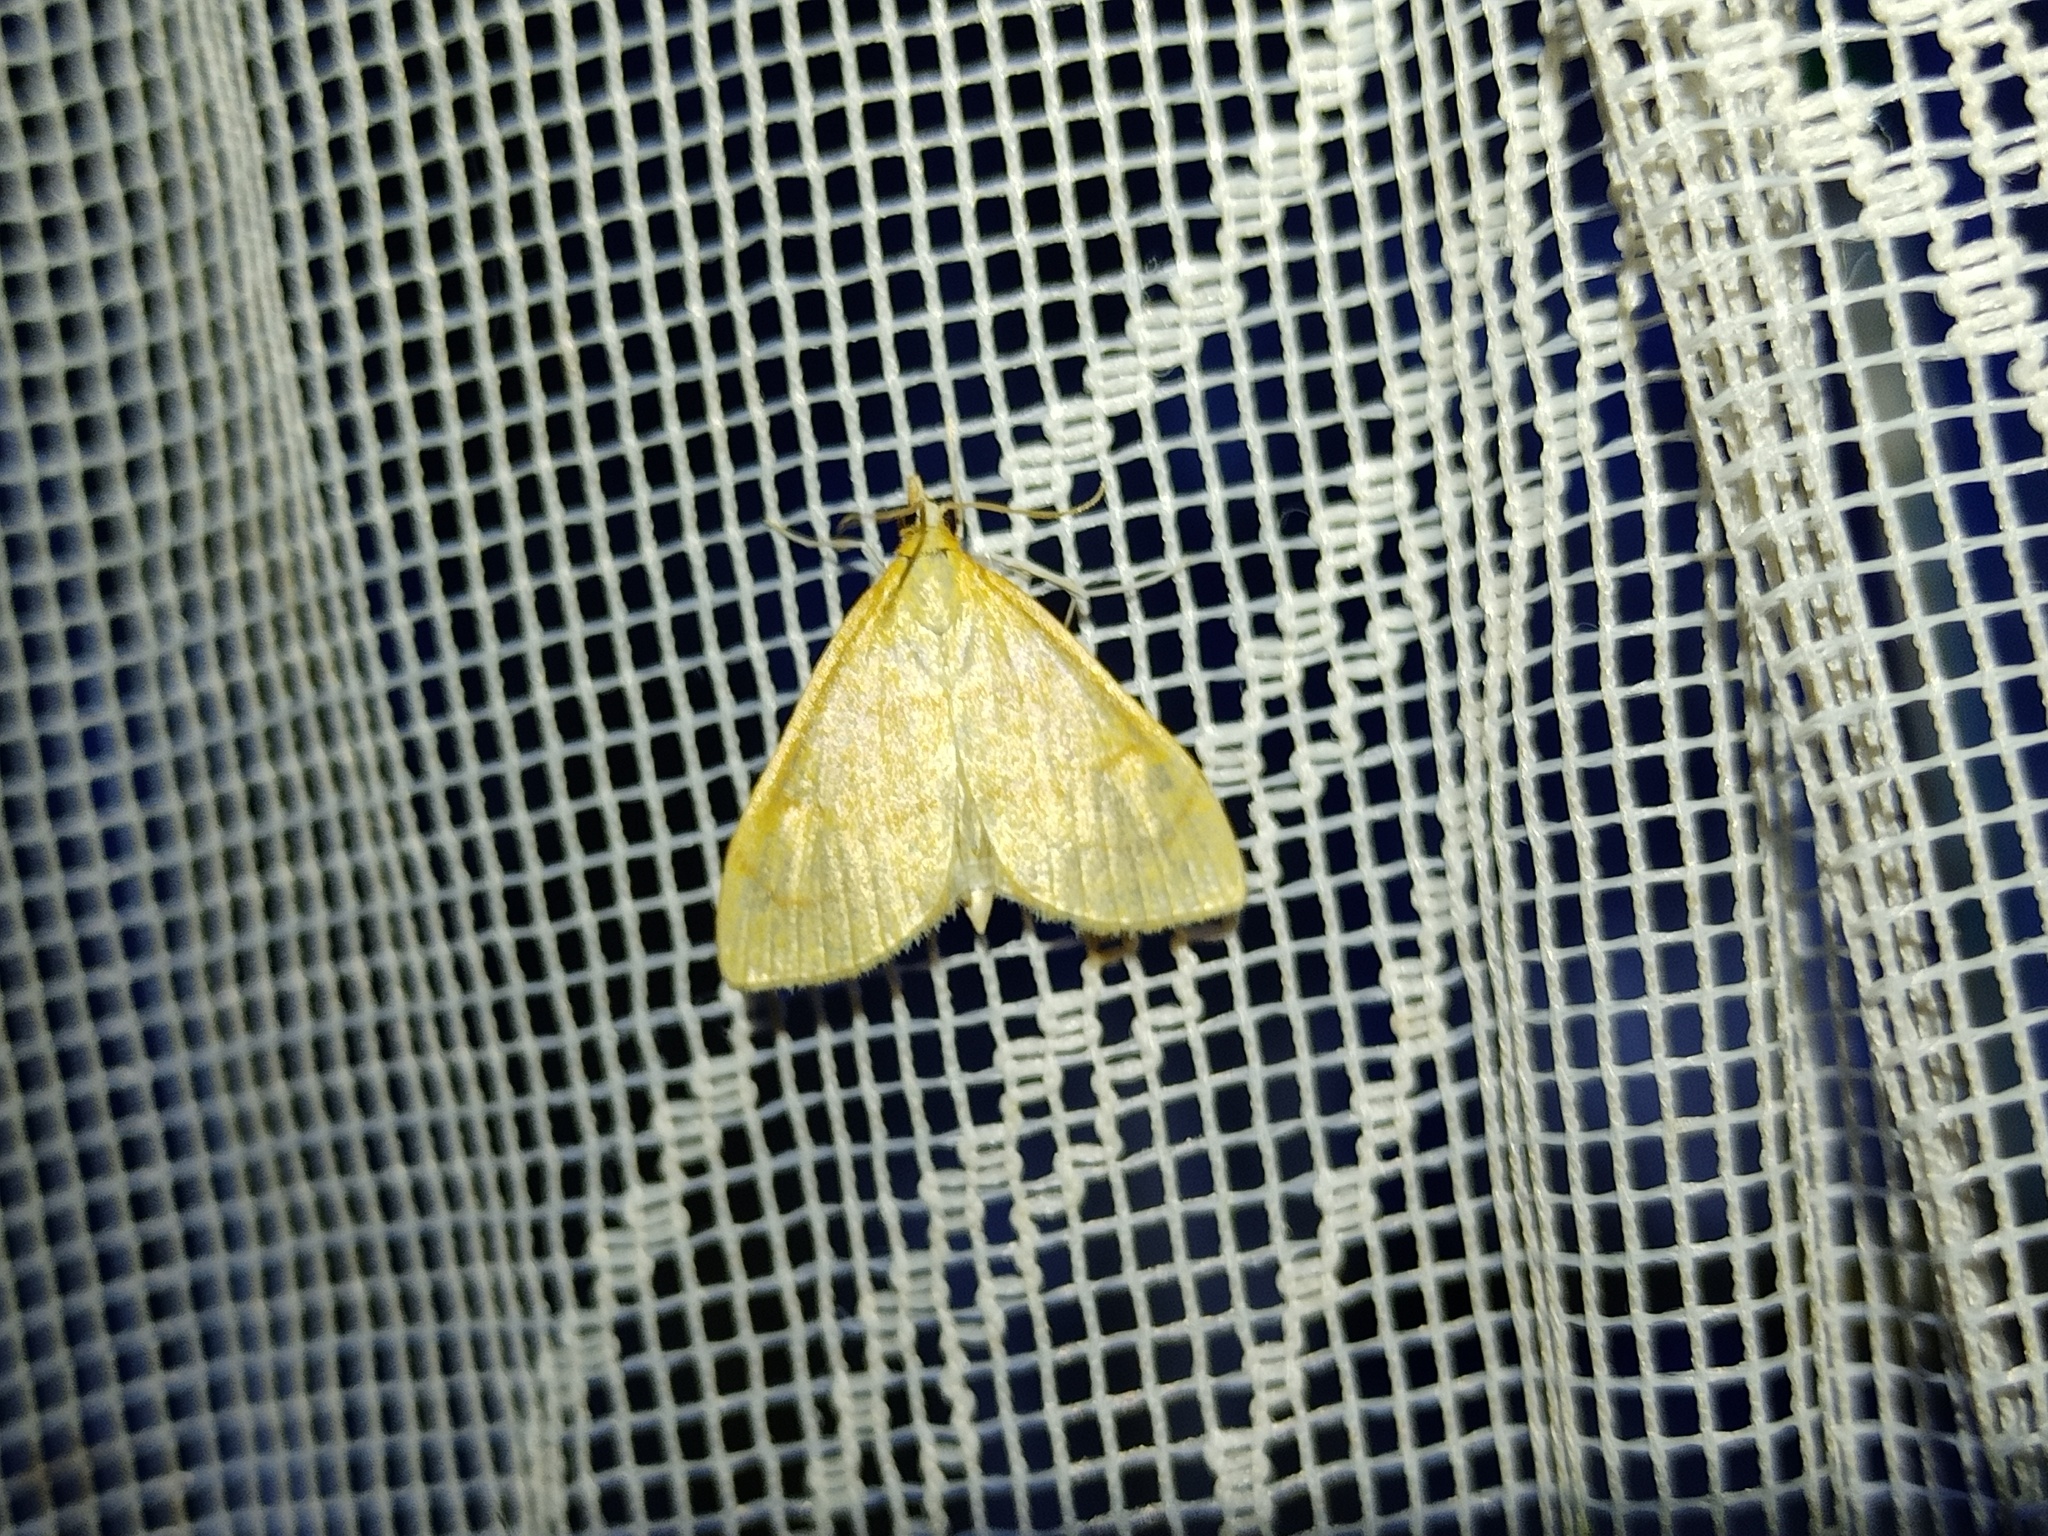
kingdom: Animalia
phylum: Arthropoda
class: Insecta
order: Lepidoptera
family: Crambidae
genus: Anania
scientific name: Anania crocealis
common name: Ochreous pearl
